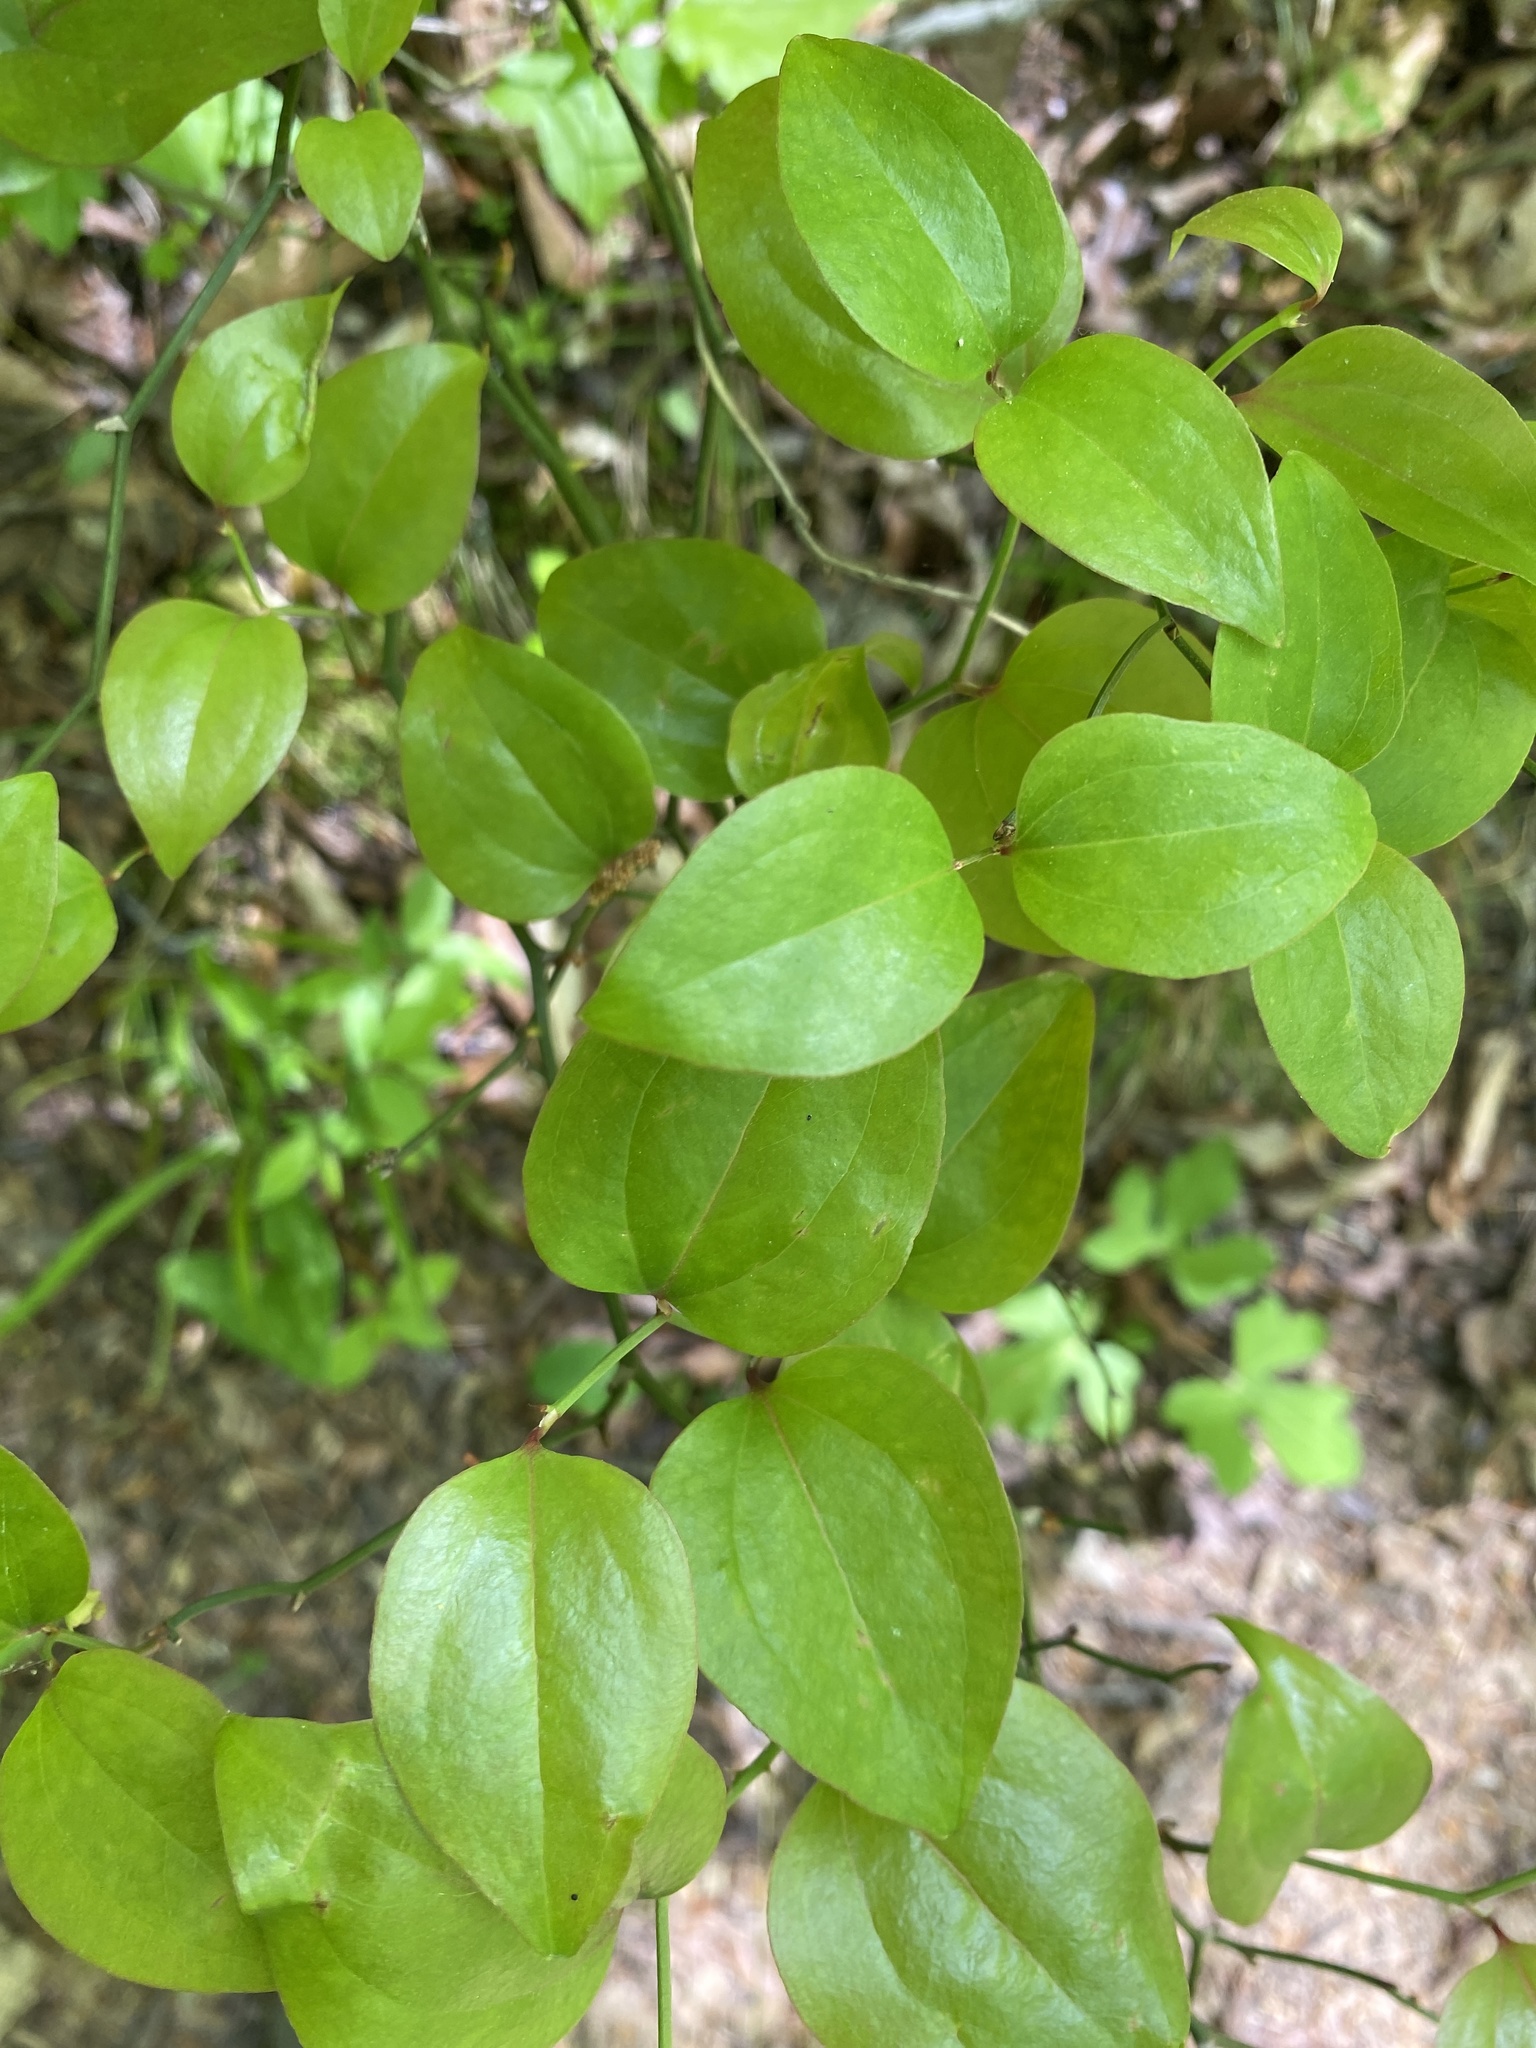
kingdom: Plantae
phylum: Tracheophyta
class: Liliopsida
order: Liliales
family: Smilacaceae
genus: Smilax
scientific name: Smilax rotundifolia
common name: Bullbriar
